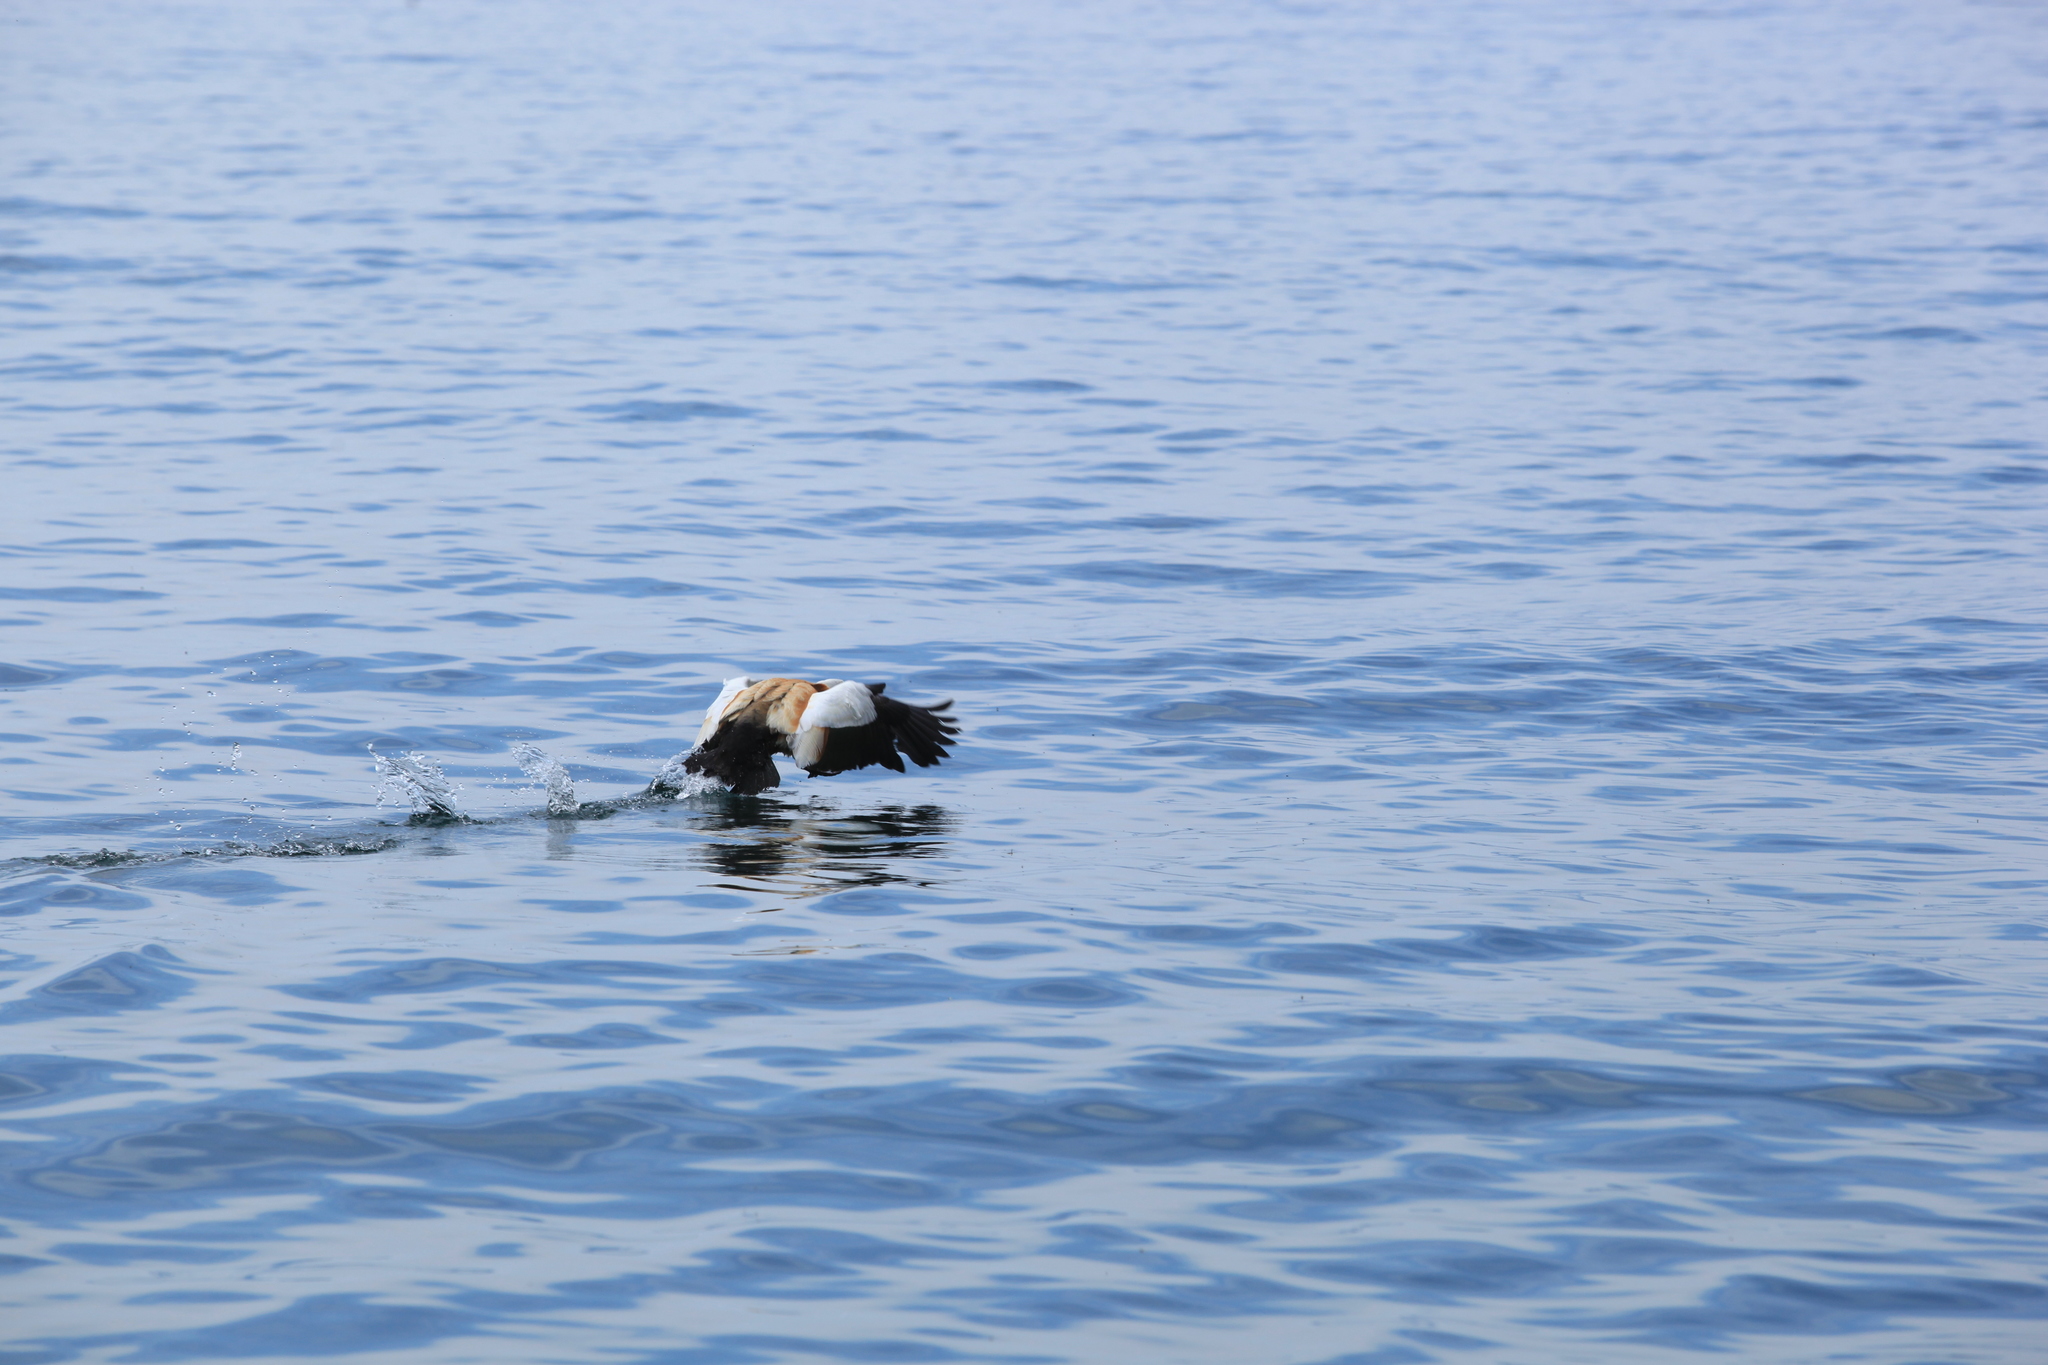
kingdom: Animalia
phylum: Chordata
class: Aves
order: Anseriformes
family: Anatidae
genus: Tadorna
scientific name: Tadorna ferruginea
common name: Ruddy shelduck
